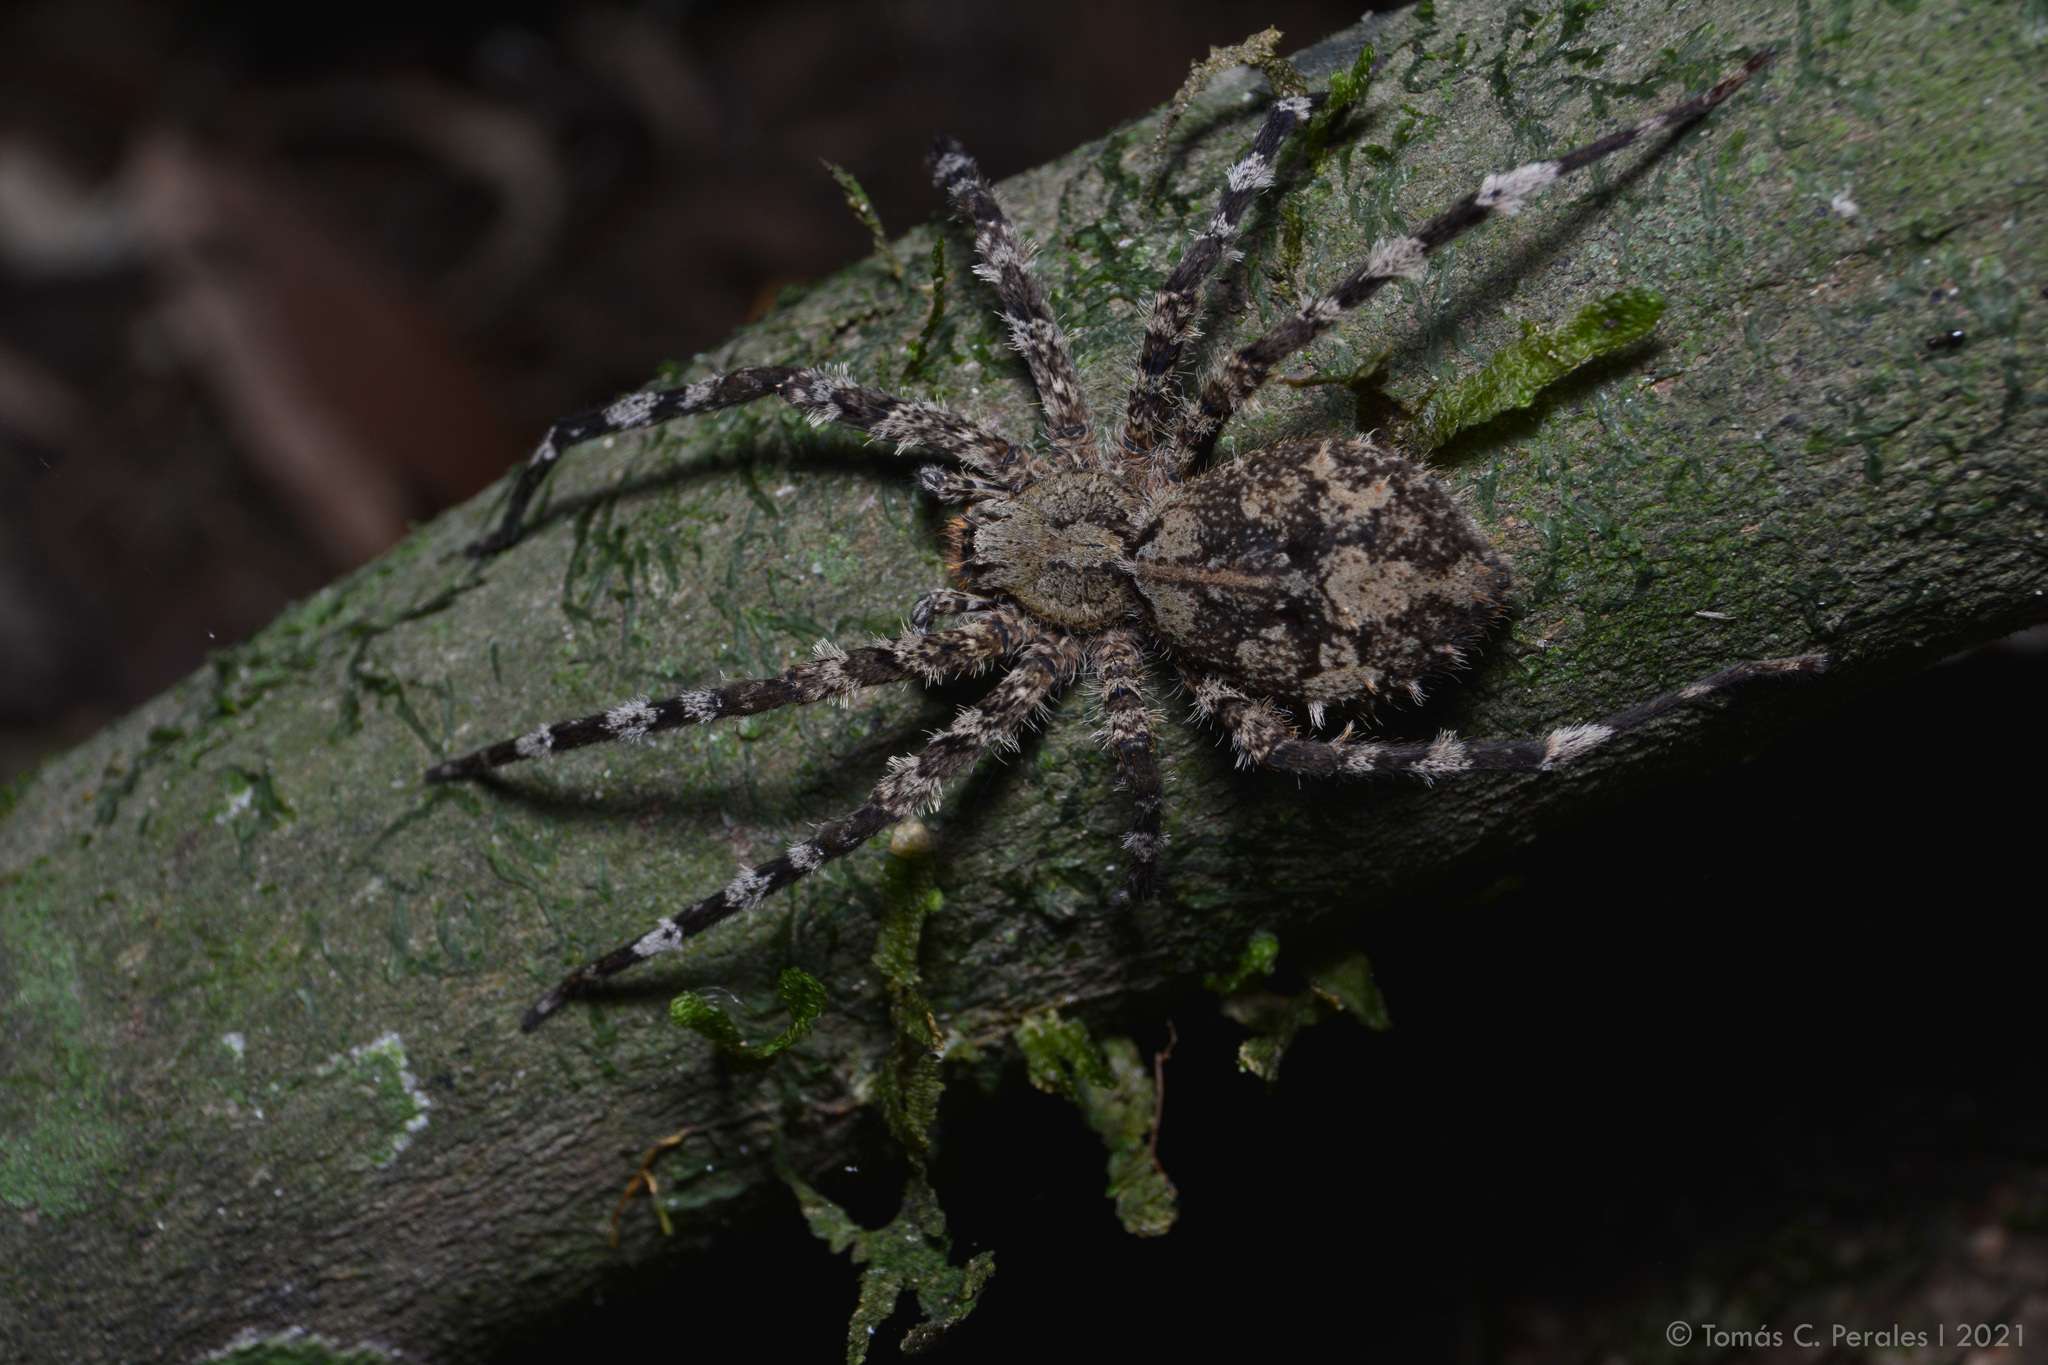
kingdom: Animalia
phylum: Arthropoda
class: Arachnida
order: Araneae
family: Ctenidae
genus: Enoploctenus
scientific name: Enoploctenus cyclothorax
